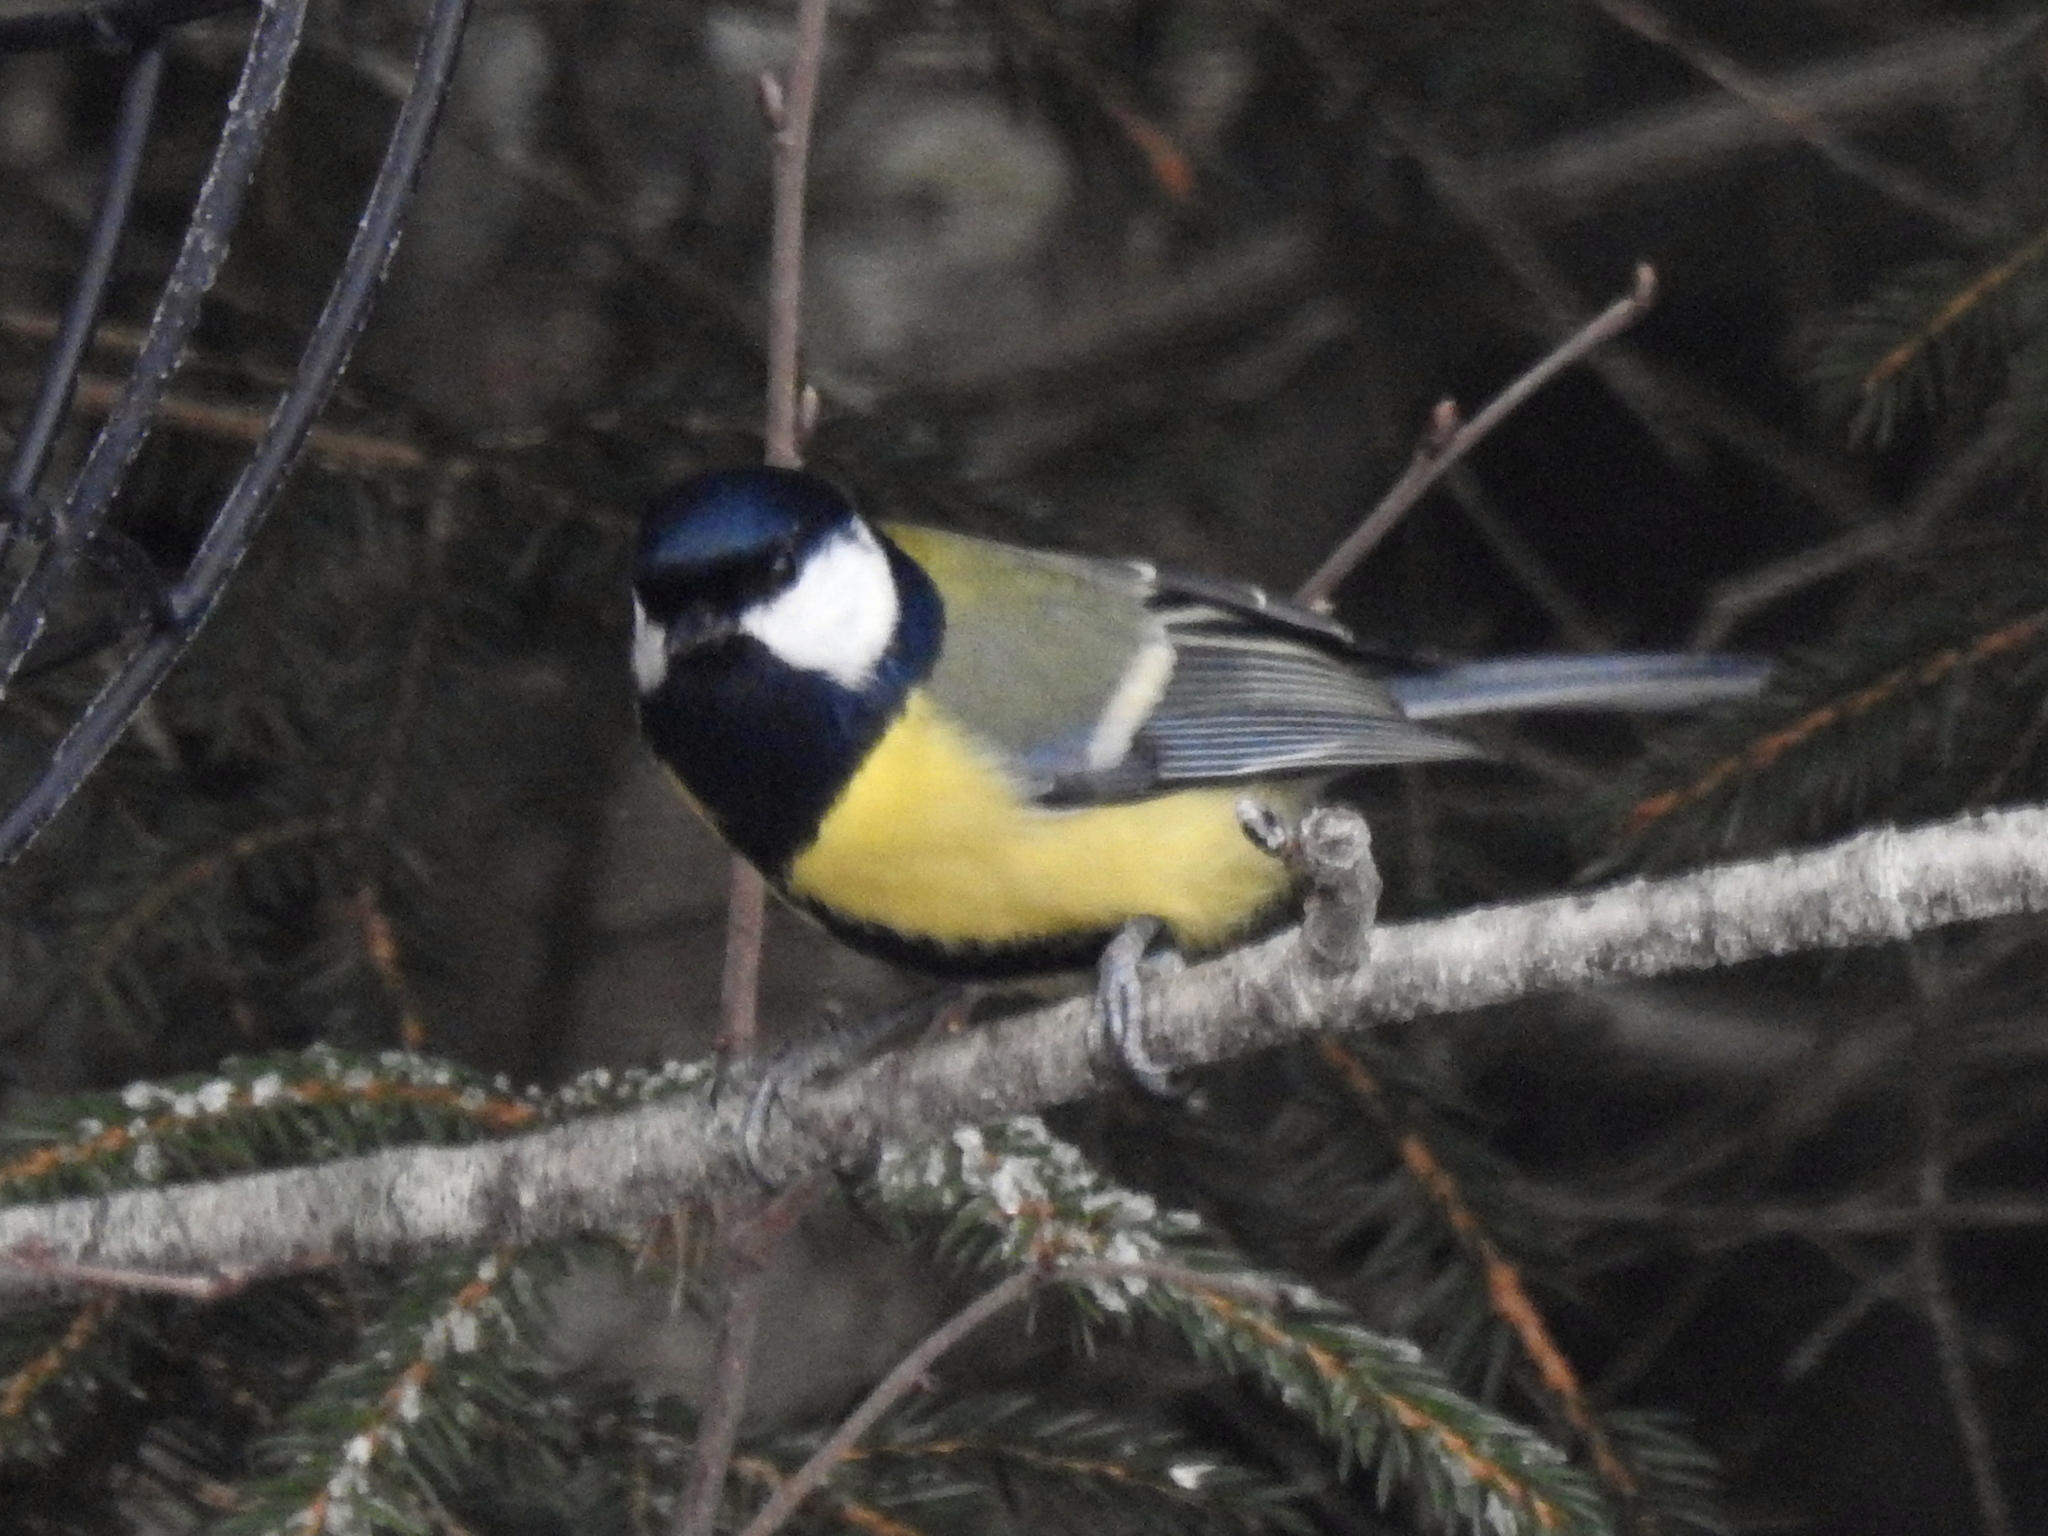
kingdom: Animalia
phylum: Chordata
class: Aves
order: Passeriformes
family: Paridae
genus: Parus
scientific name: Parus major
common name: Great tit
